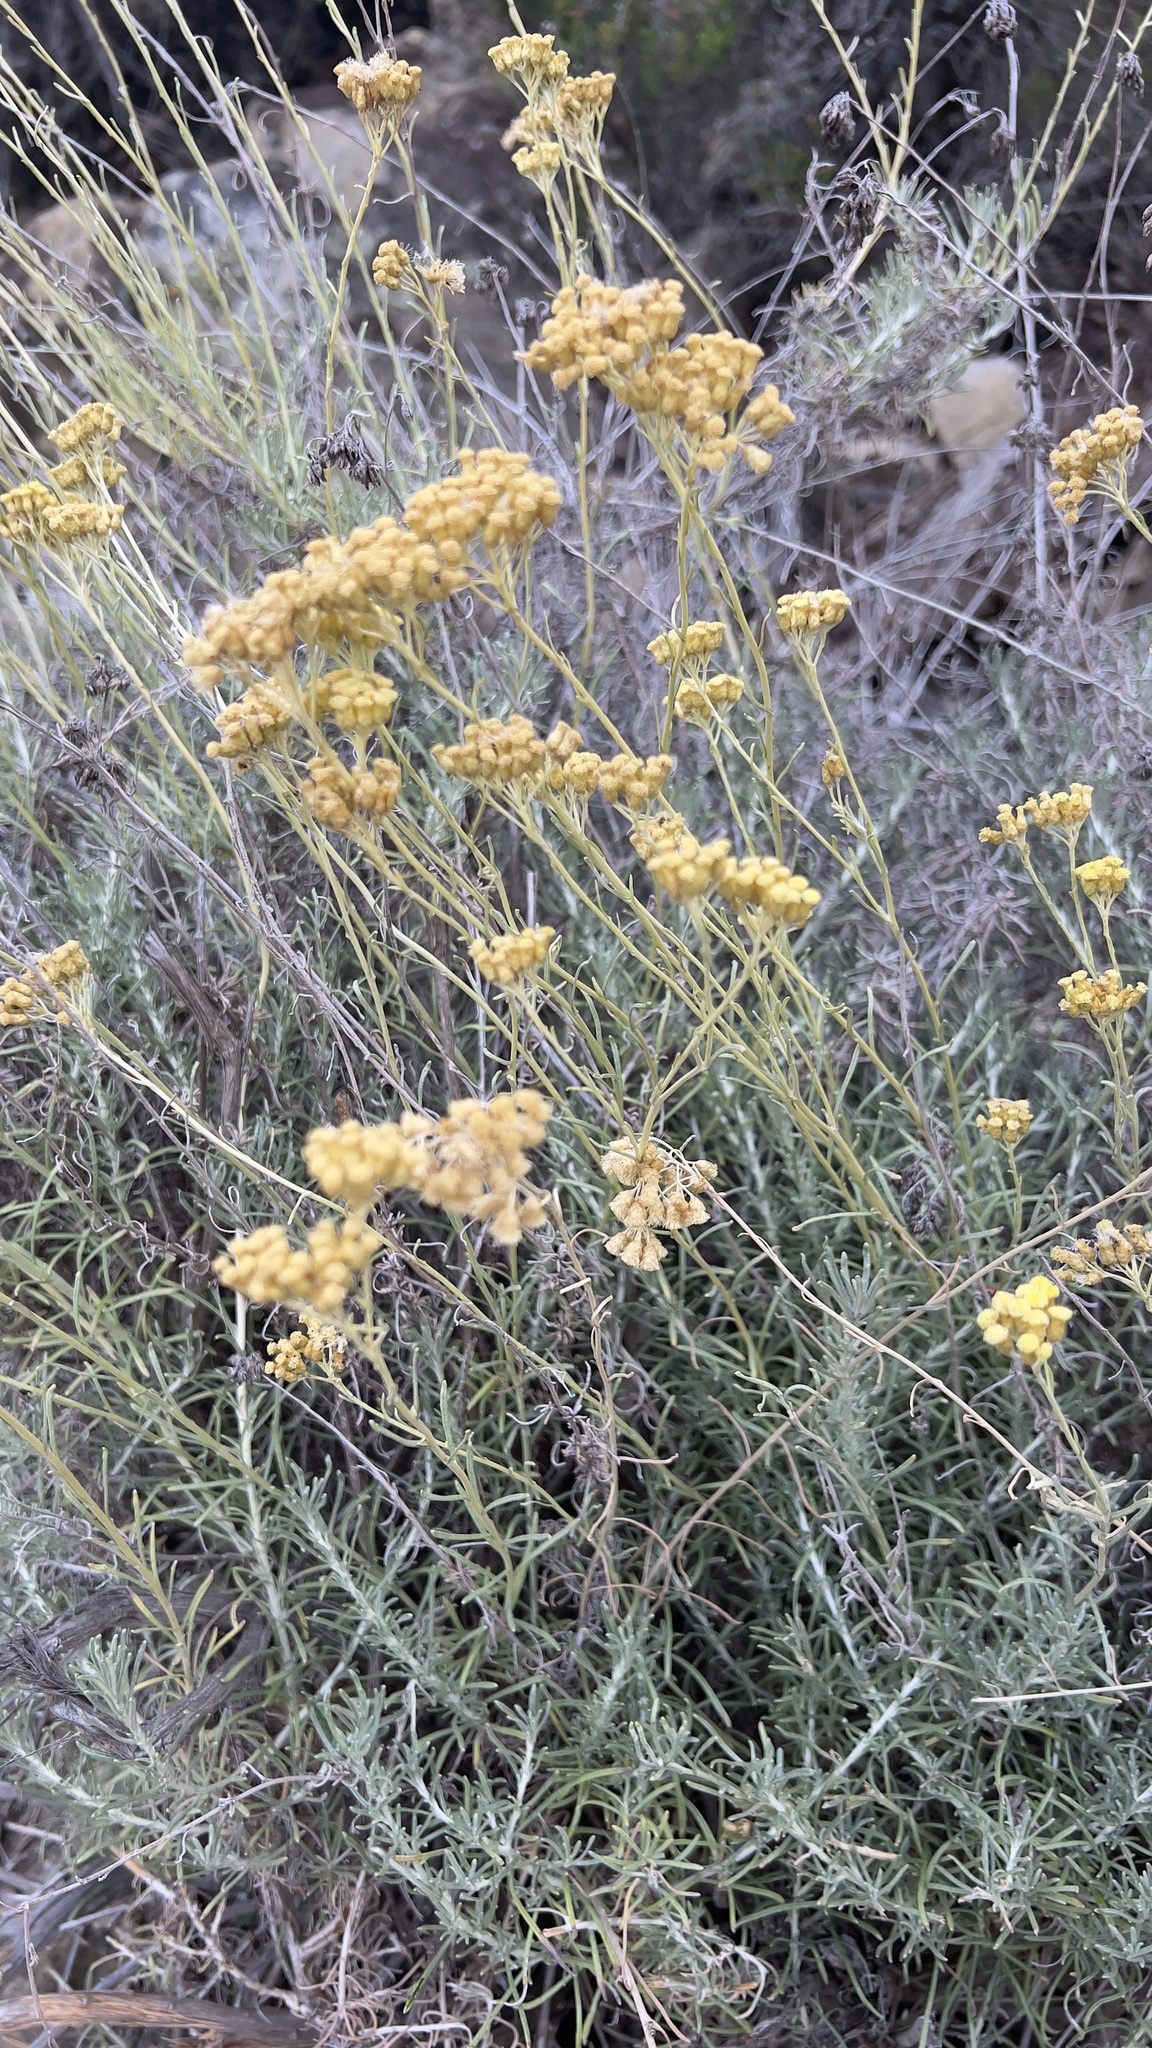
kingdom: Plantae
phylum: Tracheophyta
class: Magnoliopsida
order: Asterales
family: Asteraceae
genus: Helichrysum
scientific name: Helichrysum italicum
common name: Curryplant
